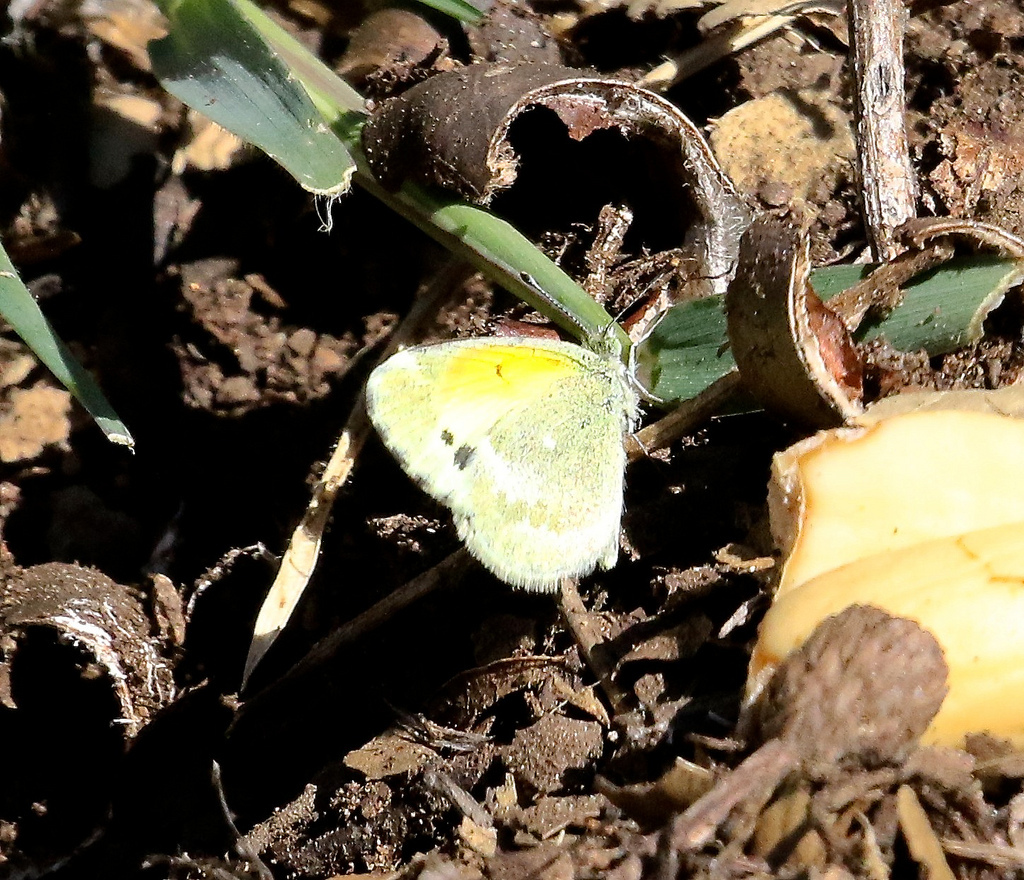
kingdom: Animalia
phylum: Arthropoda
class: Insecta
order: Lepidoptera
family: Pieridae
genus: Nathalis
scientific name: Nathalis iole
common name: Dainty sulphur
